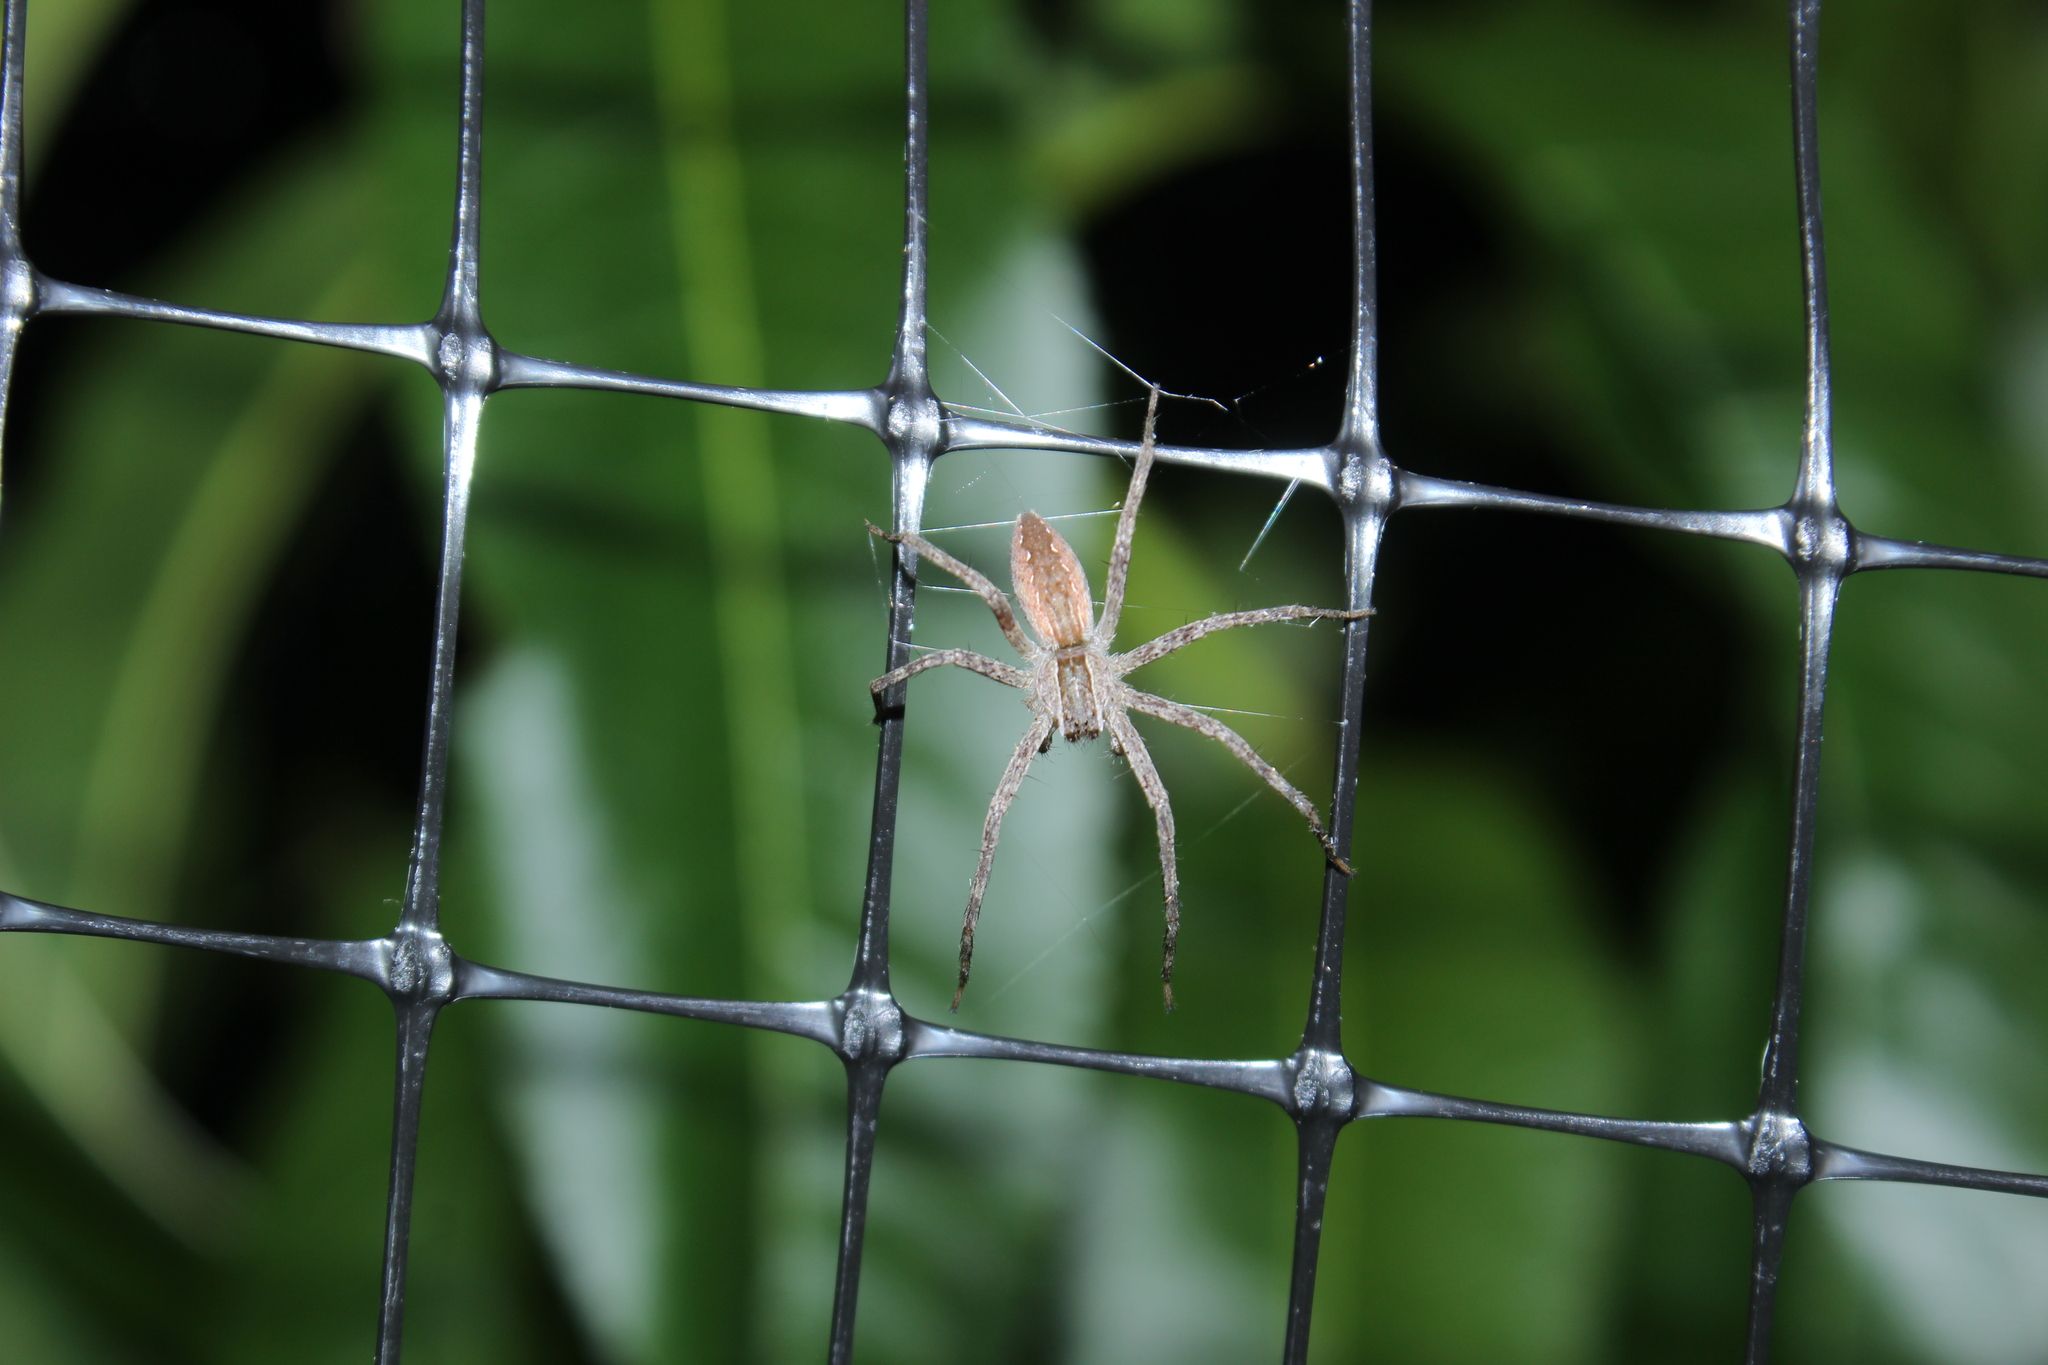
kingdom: Animalia
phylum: Arthropoda
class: Arachnida
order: Araneae
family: Pisauridae
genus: Pisaurina
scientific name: Pisaurina mira
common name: American nursery web spider
